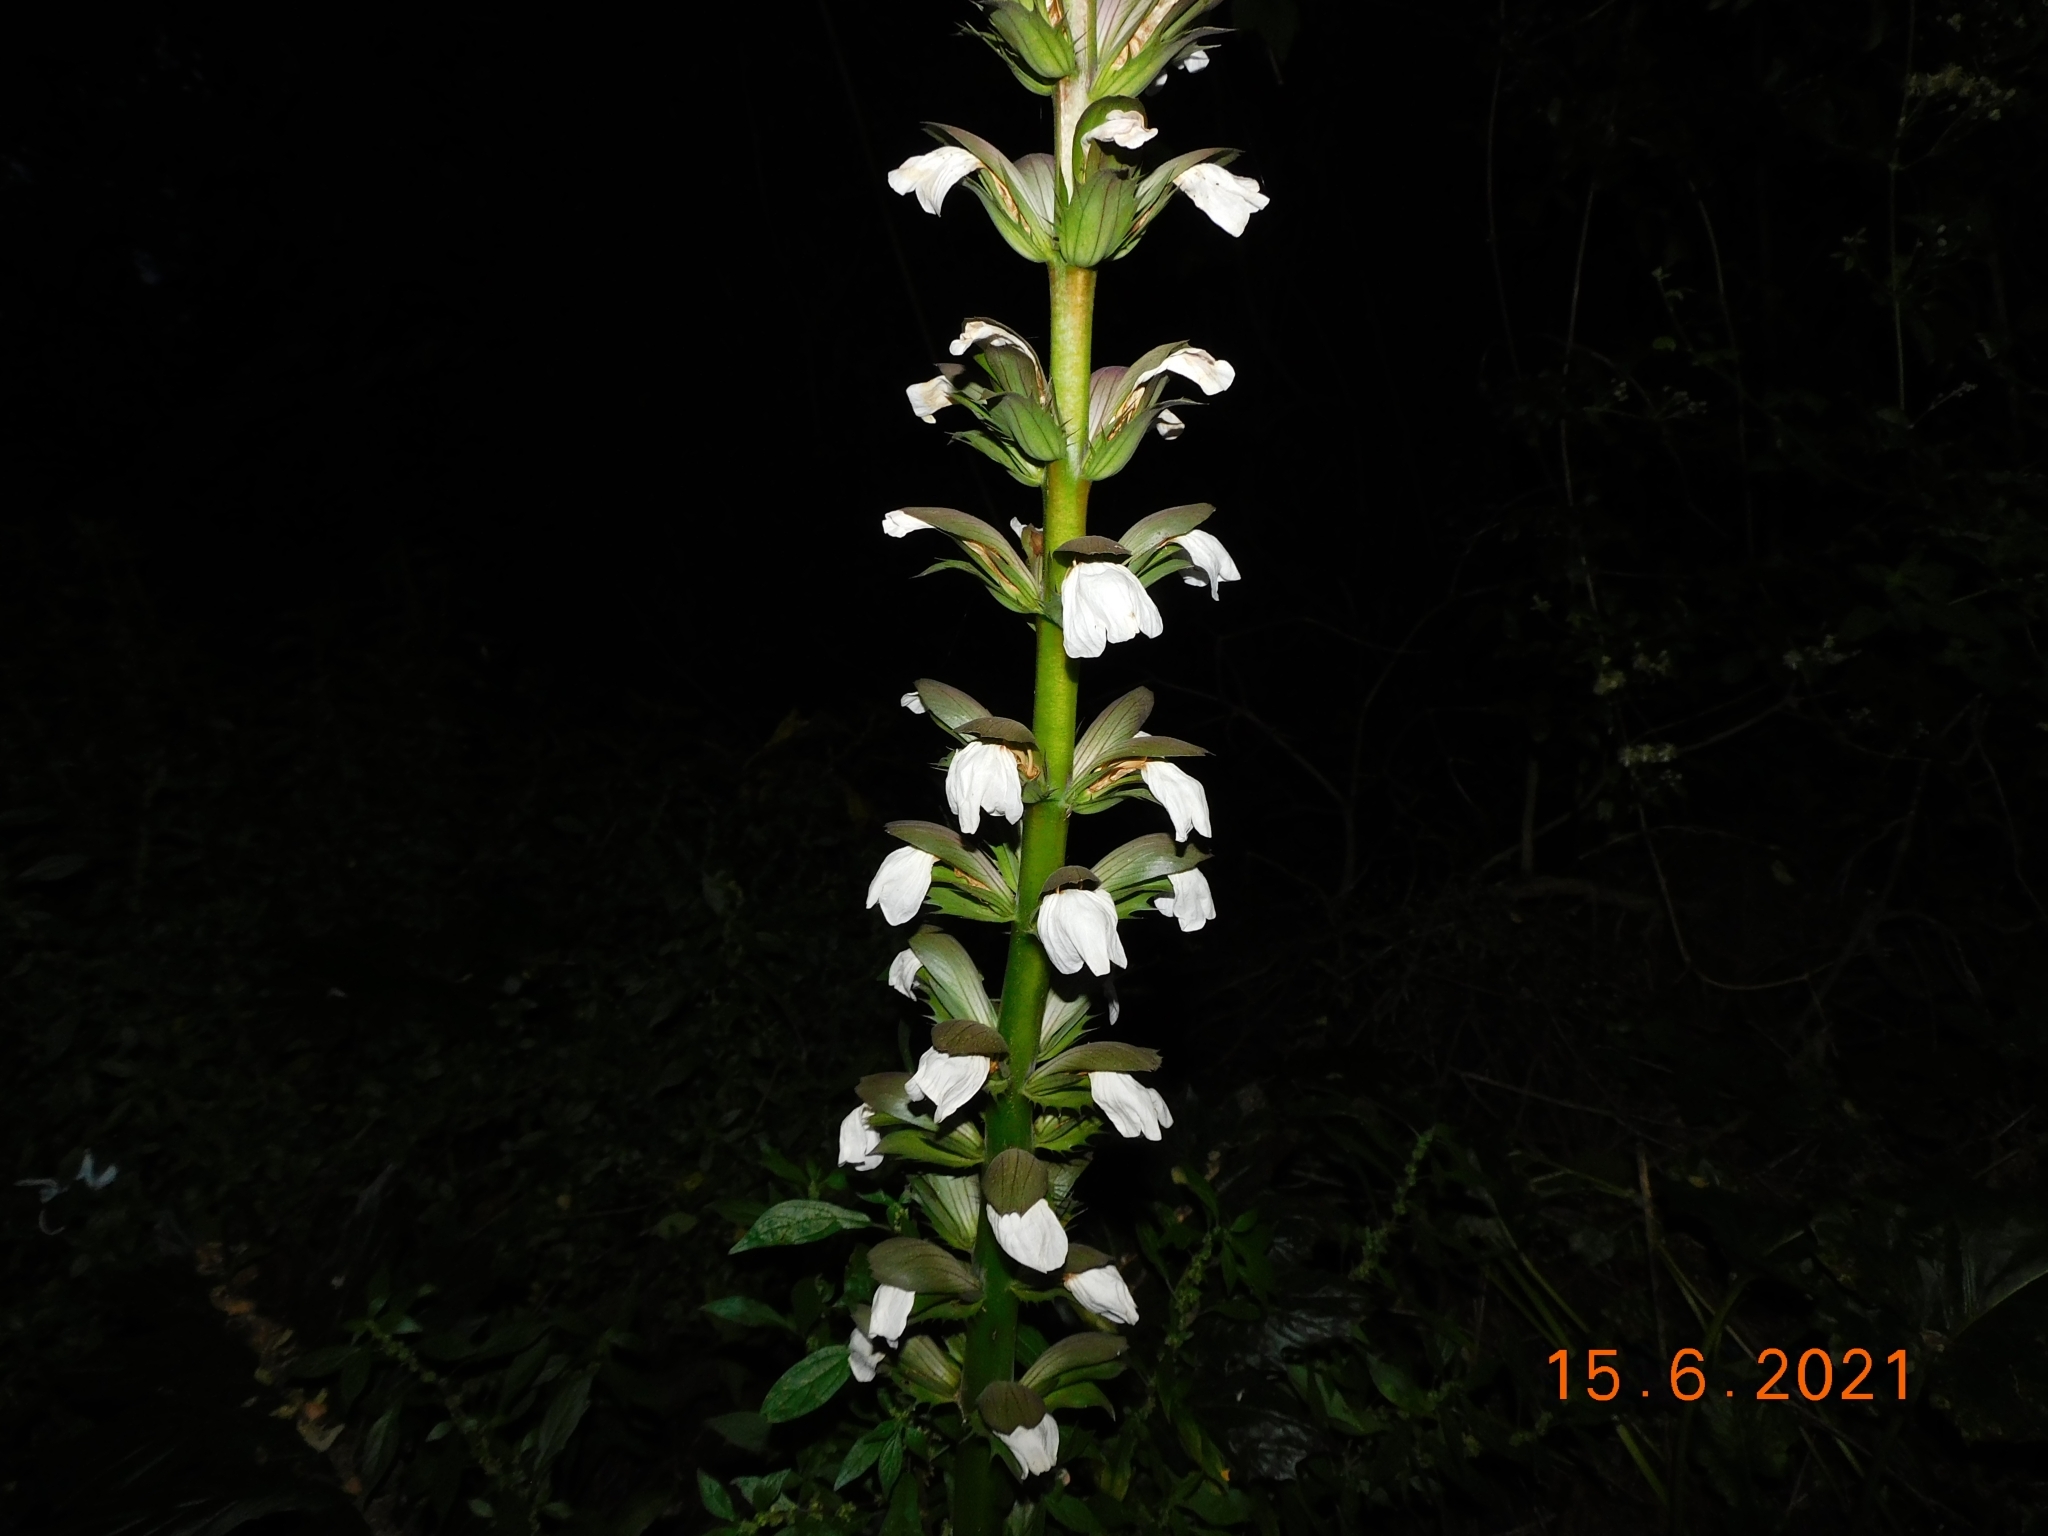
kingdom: Plantae
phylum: Tracheophyta
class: Magnoliopsida
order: Lamiales
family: Acanthaceae
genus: Acanthus
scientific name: Acanthus mollis
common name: Bear's-breech
